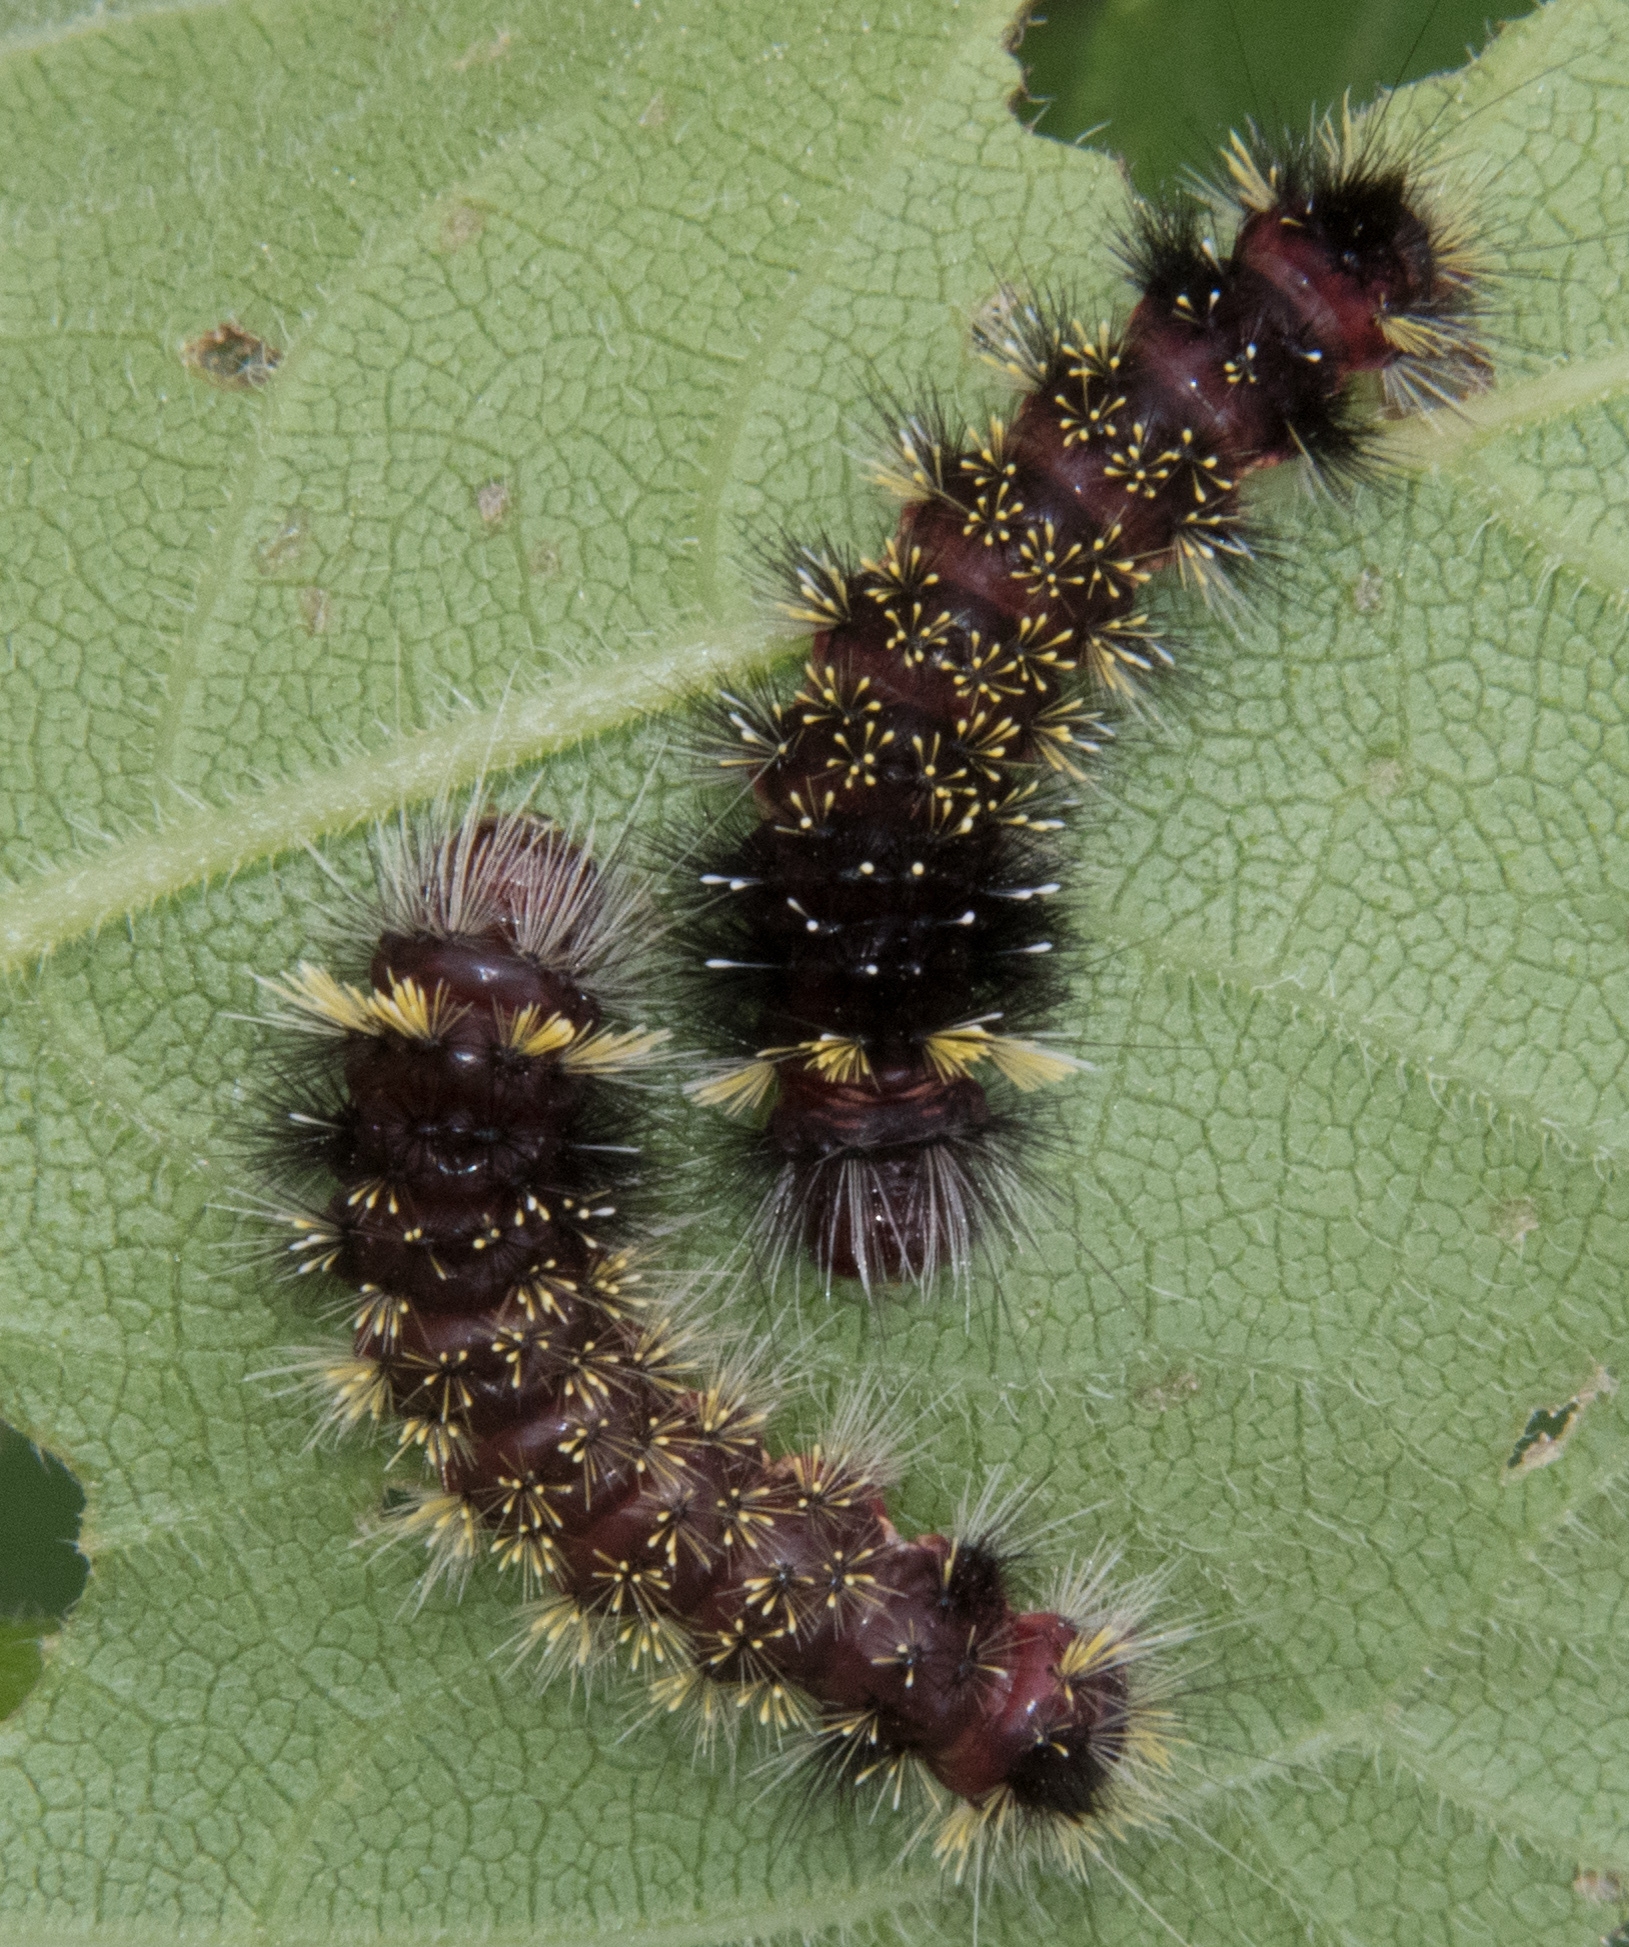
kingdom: Animalia
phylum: Arthropoda
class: Insecta
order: Lepidoptera
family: Erebidae
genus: Hypocrisias
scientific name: Hypocrisias minima
